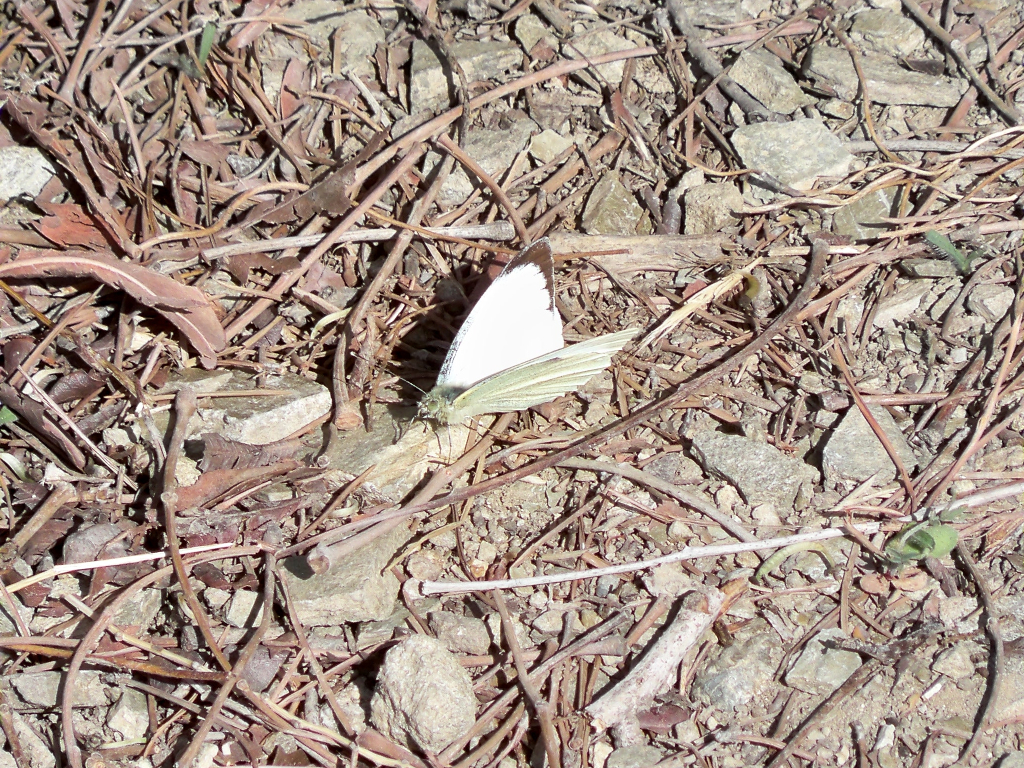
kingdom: Animalia
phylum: Arthropoda
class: Insecta
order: Lepidoptera
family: Pieridae
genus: Pieris
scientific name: Pieris brassicae
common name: Large white
